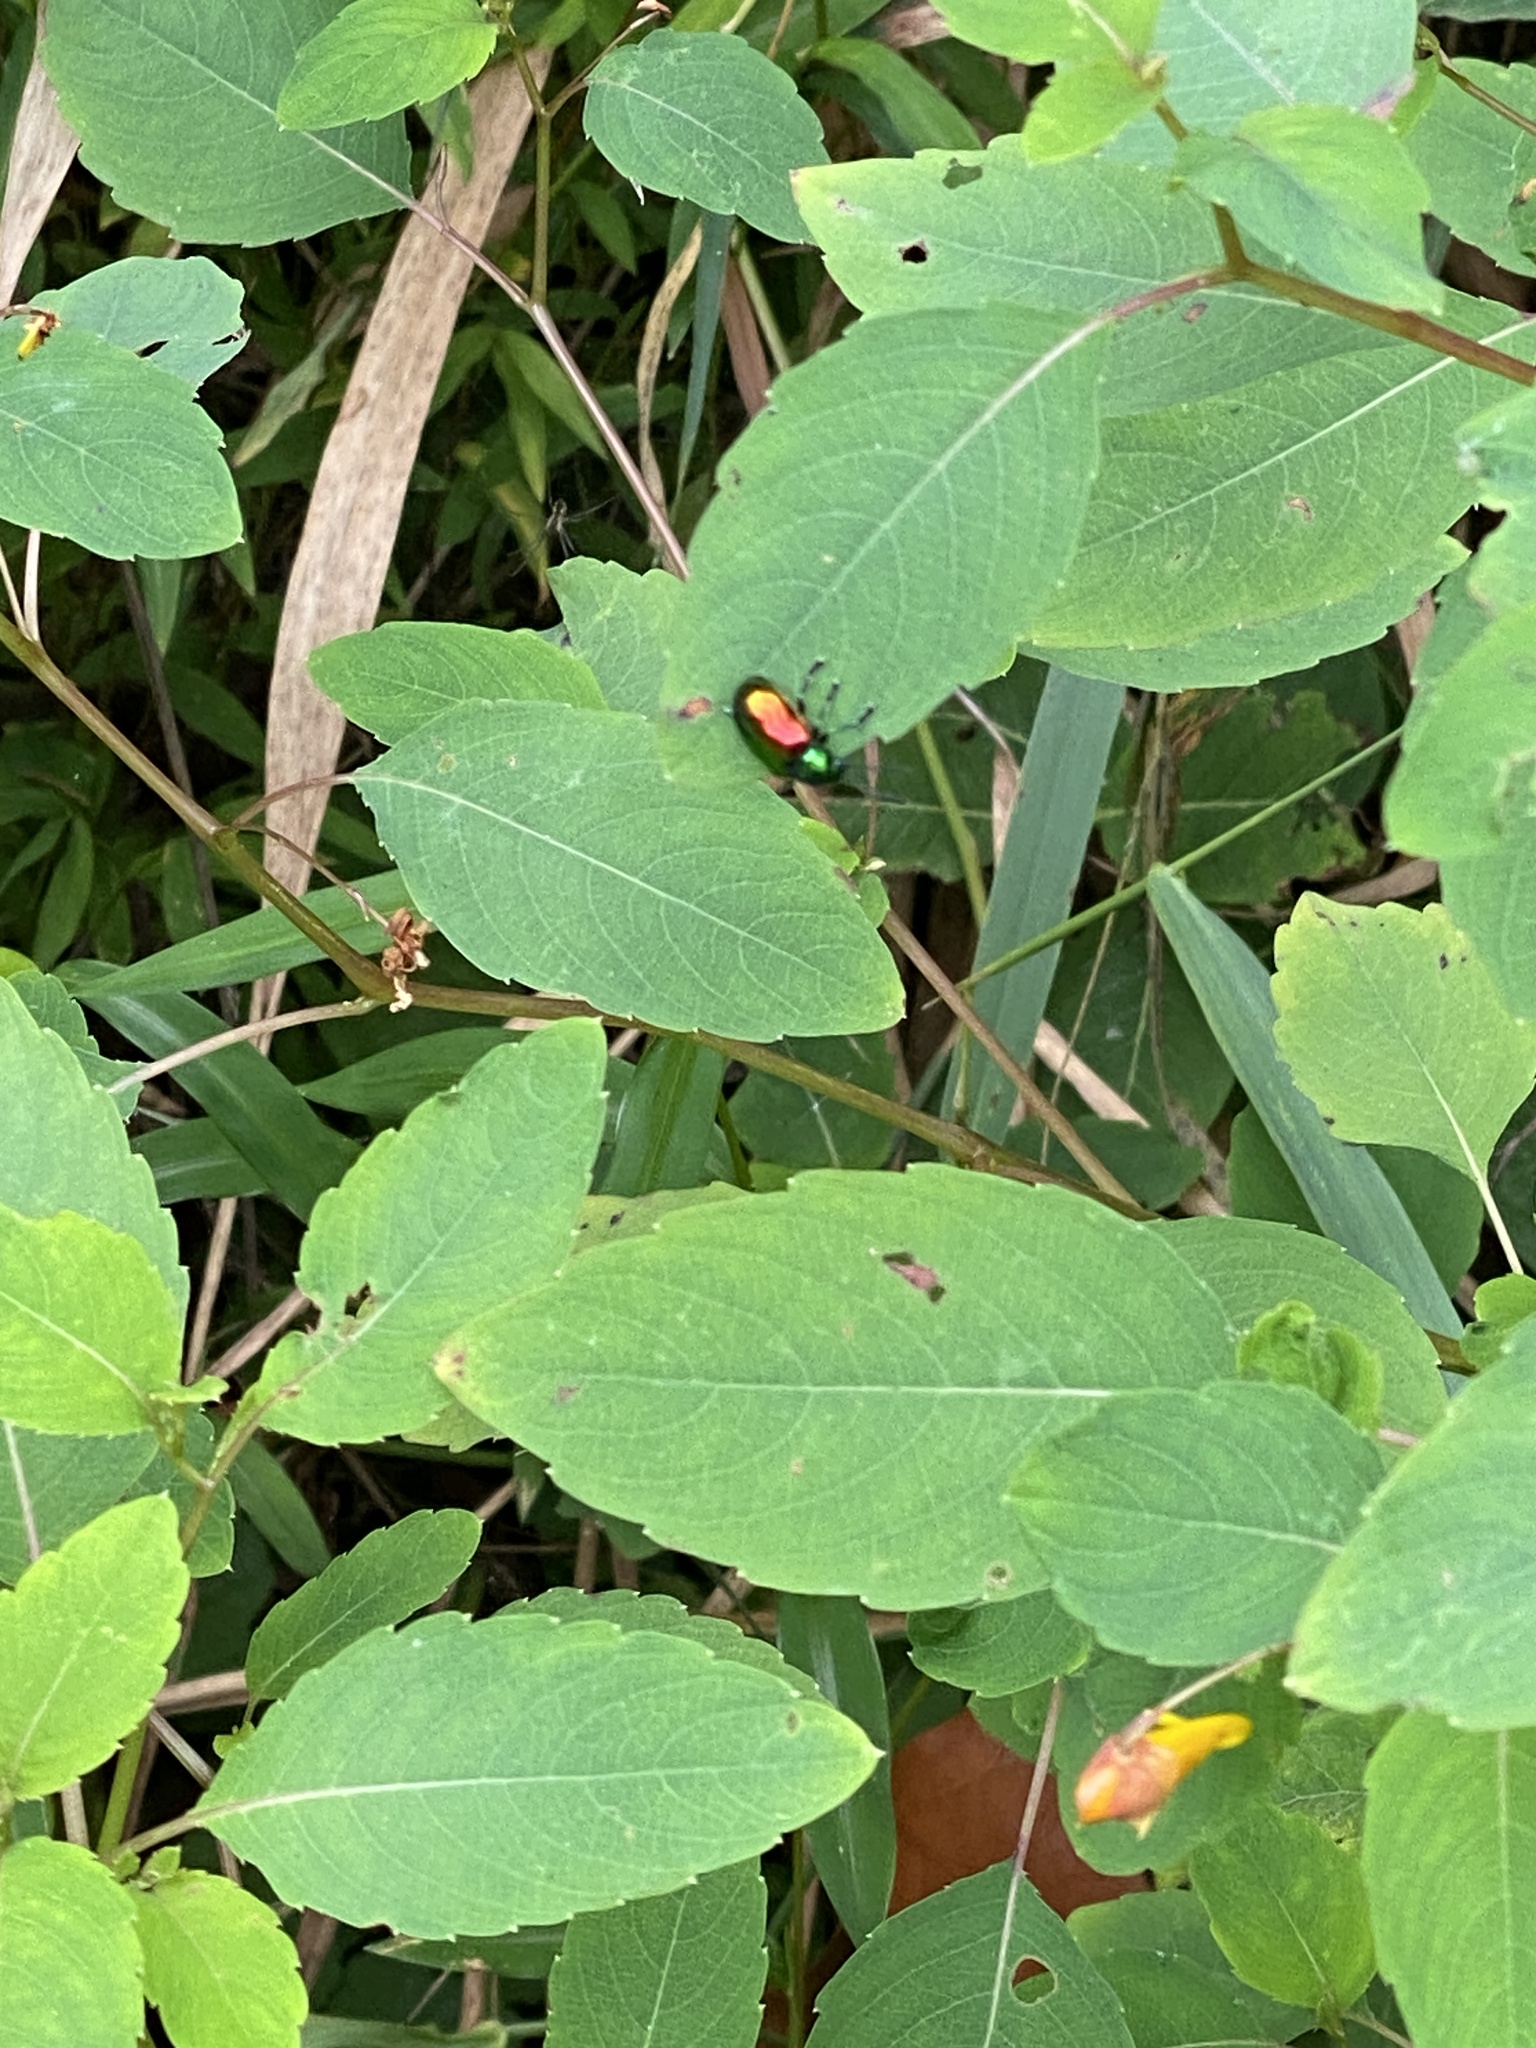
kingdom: Animalia
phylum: Arthropoda
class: Insecta
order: Coleoptera
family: Chrysomelidae
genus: Chrysochus
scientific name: Chrysochus auratus
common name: Dogbane leaf beetle
